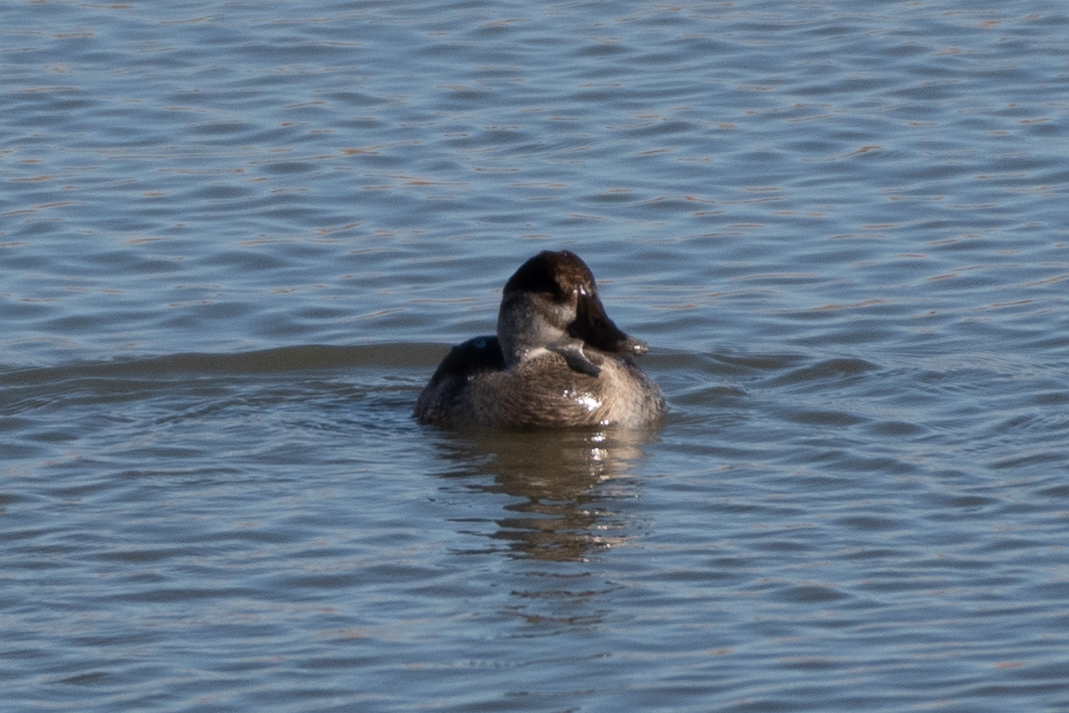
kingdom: Animalia
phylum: Chordata
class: Aves
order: Anseriformes
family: Anatidae
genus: Oxyura
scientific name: Oxyura jamaicensis
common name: Ruddy duck
